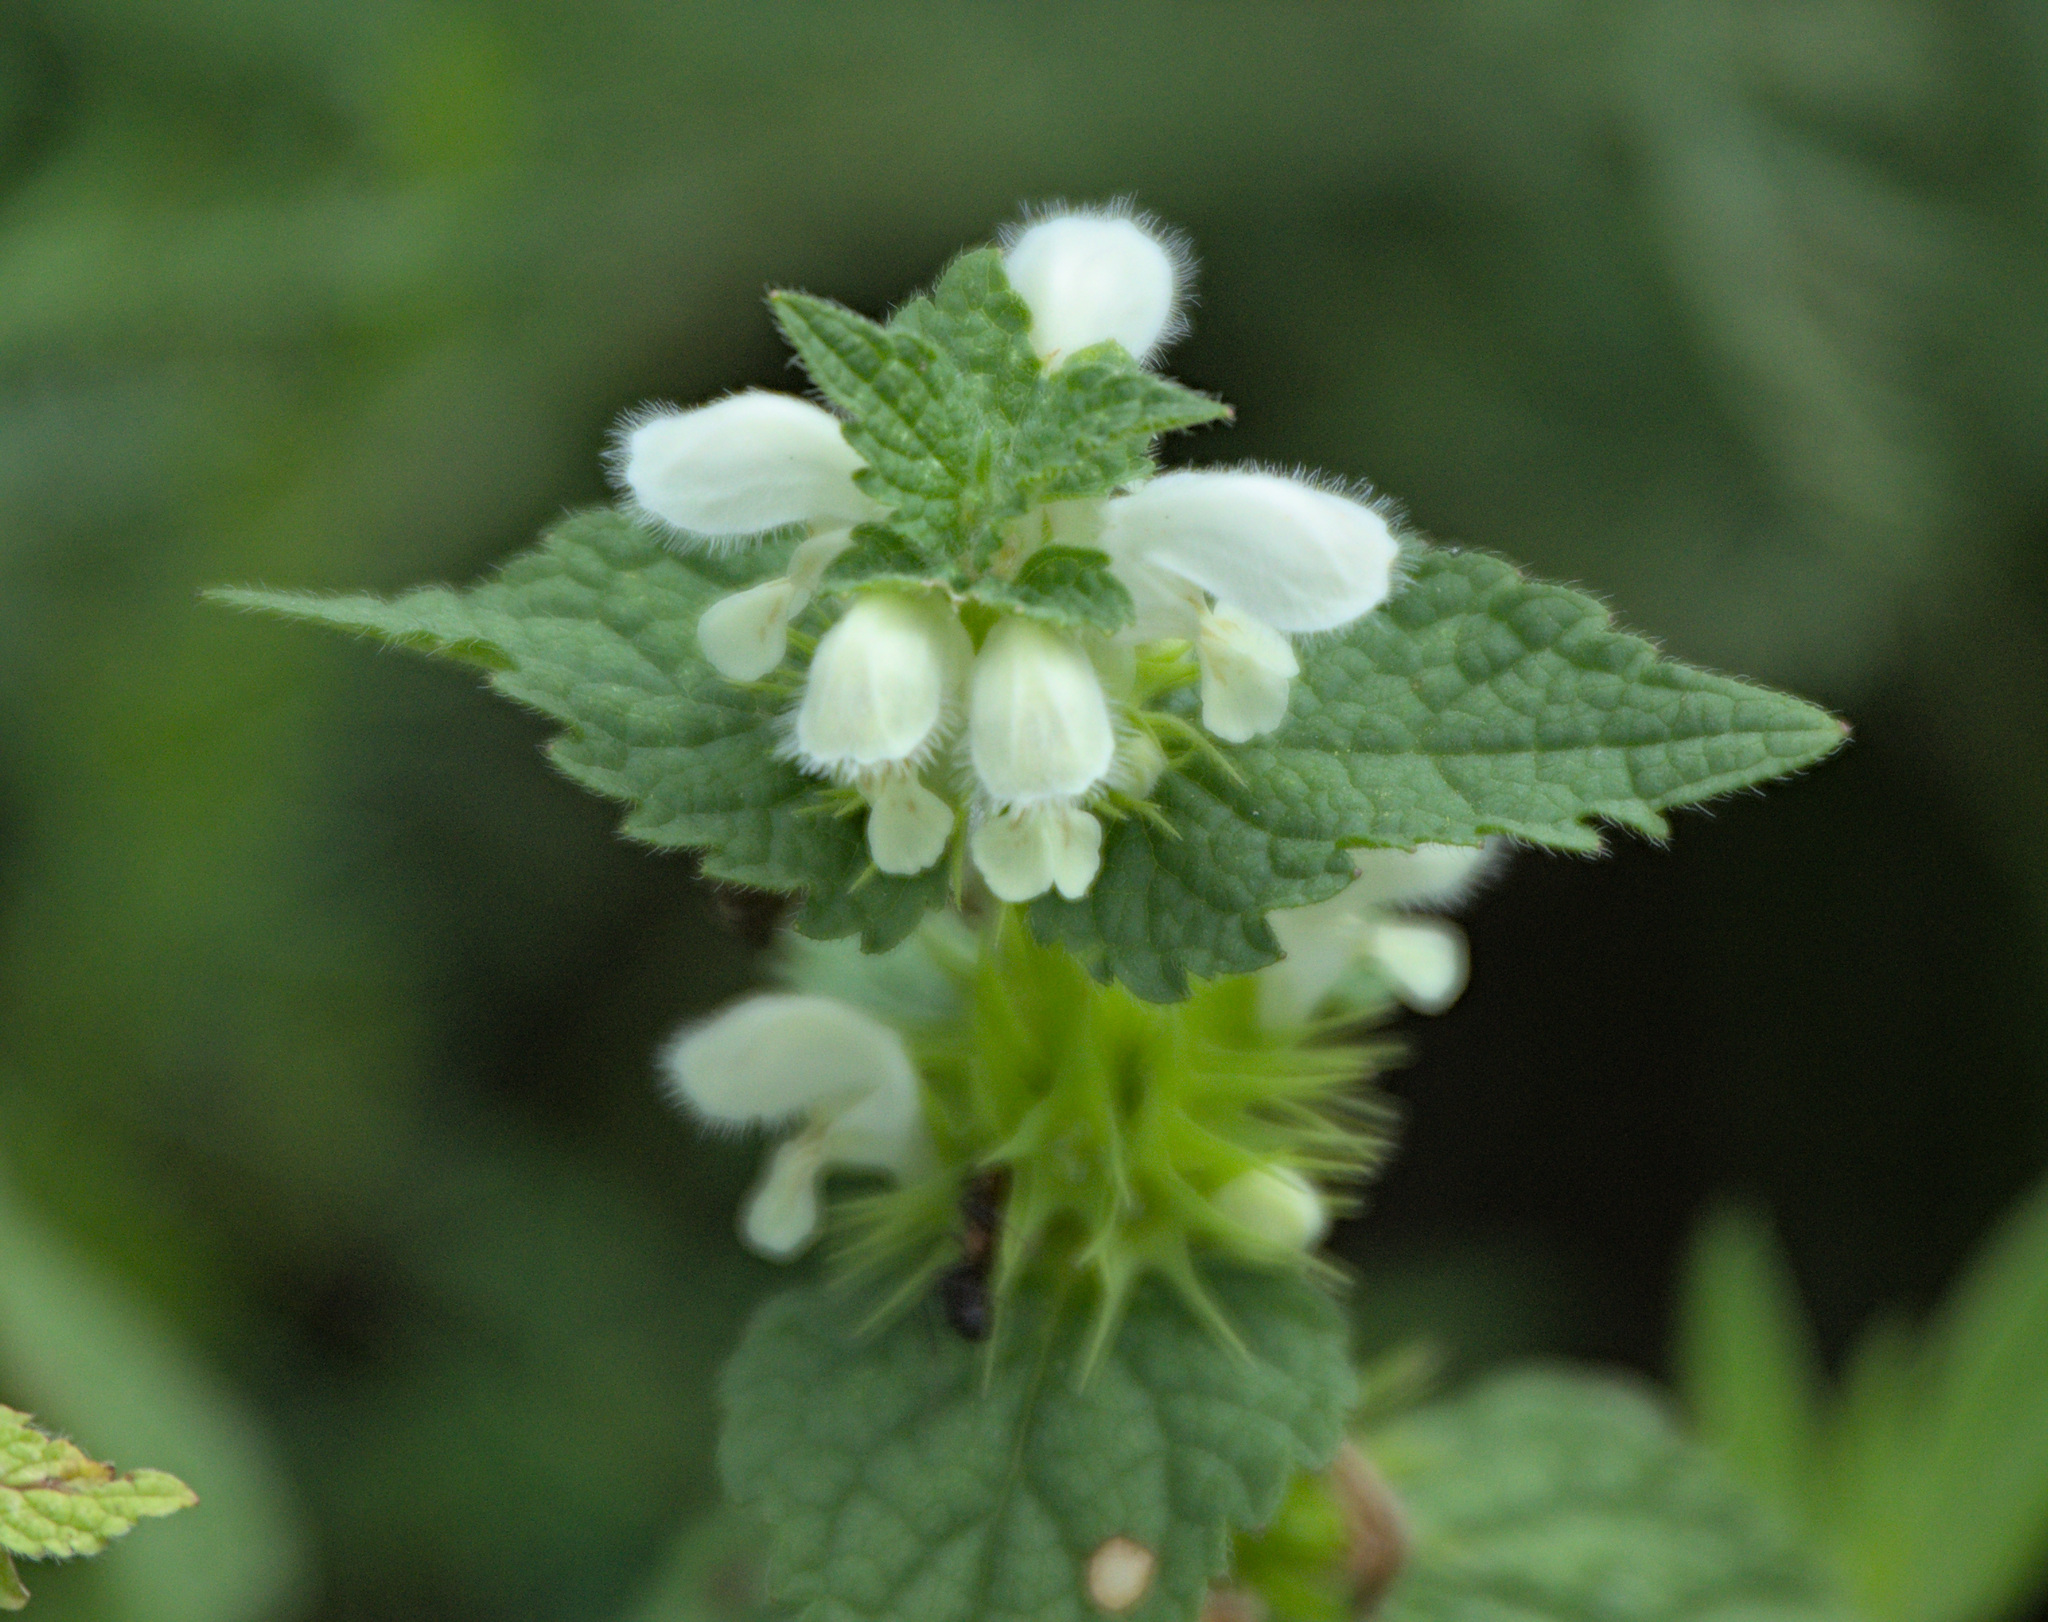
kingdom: Plantae
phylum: Tracheophyta
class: Magnoliopsida
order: Lamiales
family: Lamiaceae
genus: Lamium
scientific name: Lamium album
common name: White dead-nettle
